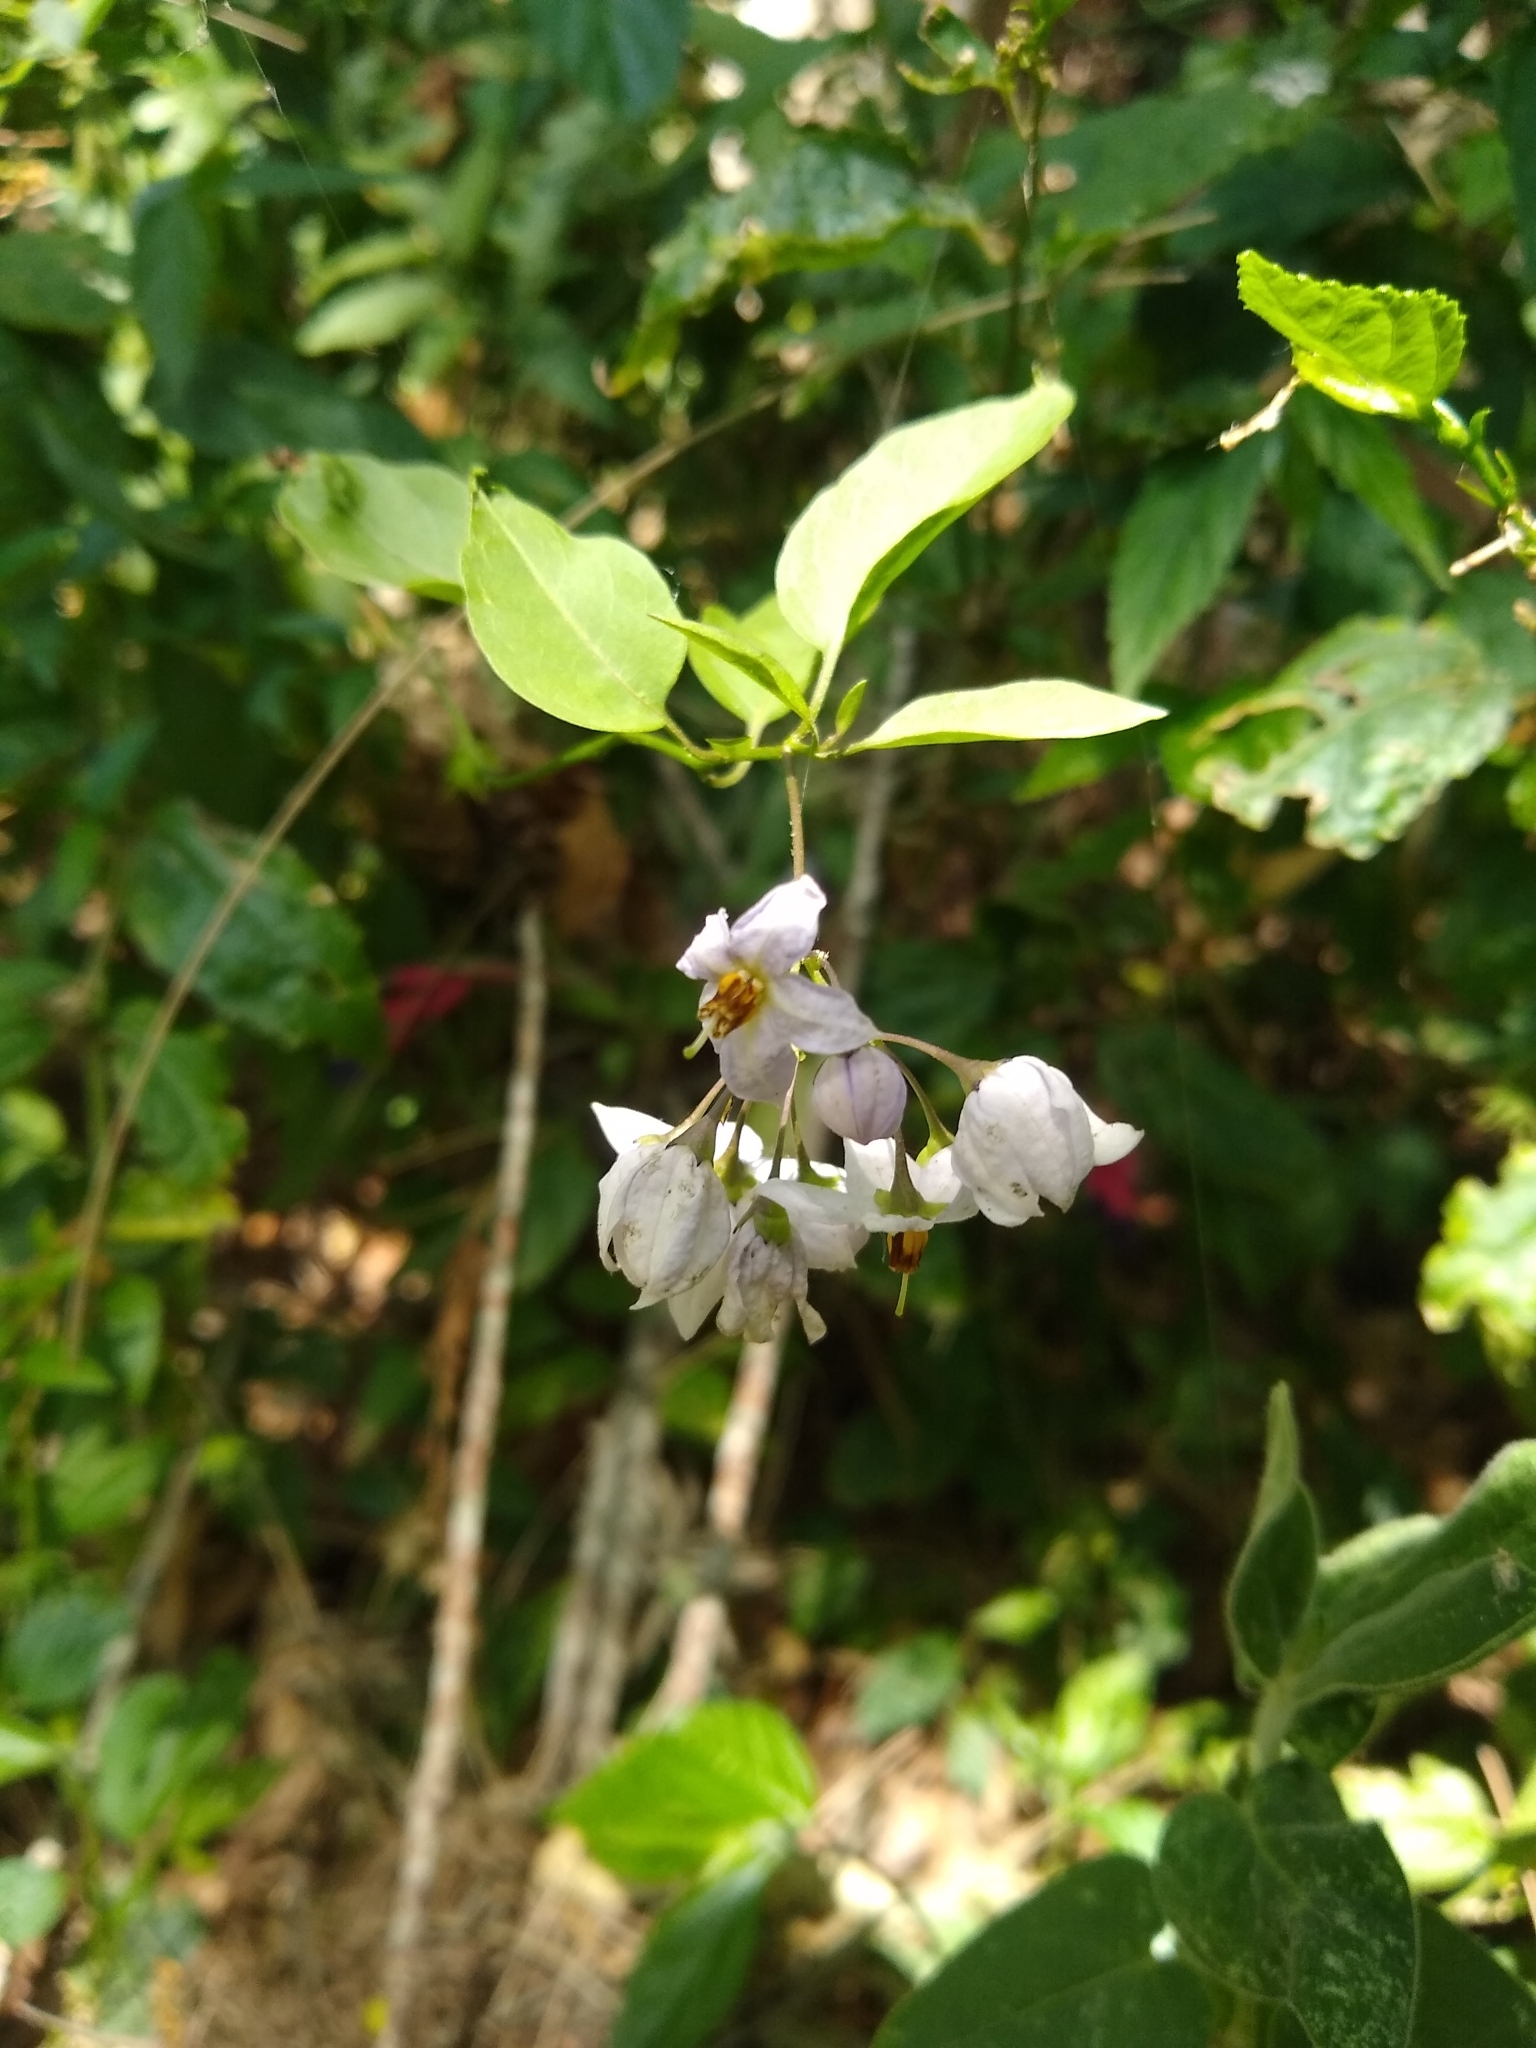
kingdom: Plantae
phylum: Tracheophyta
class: Magnoliopsida
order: Solanales
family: Solanaceae
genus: Solanum
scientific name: Solanum laxum
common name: Nightshade
